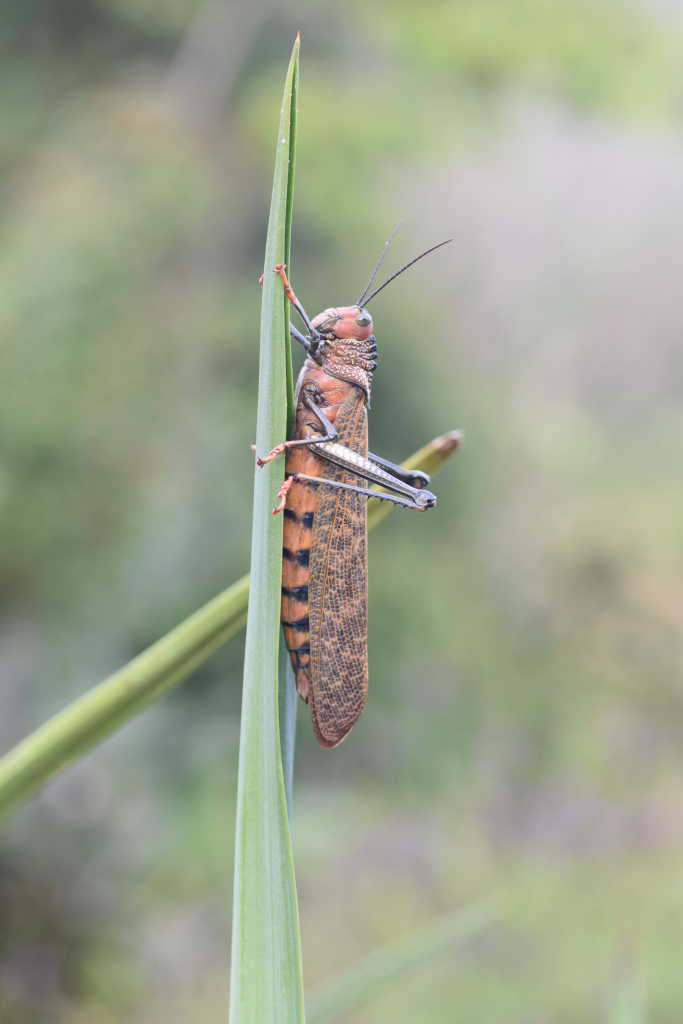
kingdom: Animalia
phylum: Arthropoda
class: Insecta
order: Orthoptera
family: Romaleidae
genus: Tropidacris
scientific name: Tropidacris cristata
